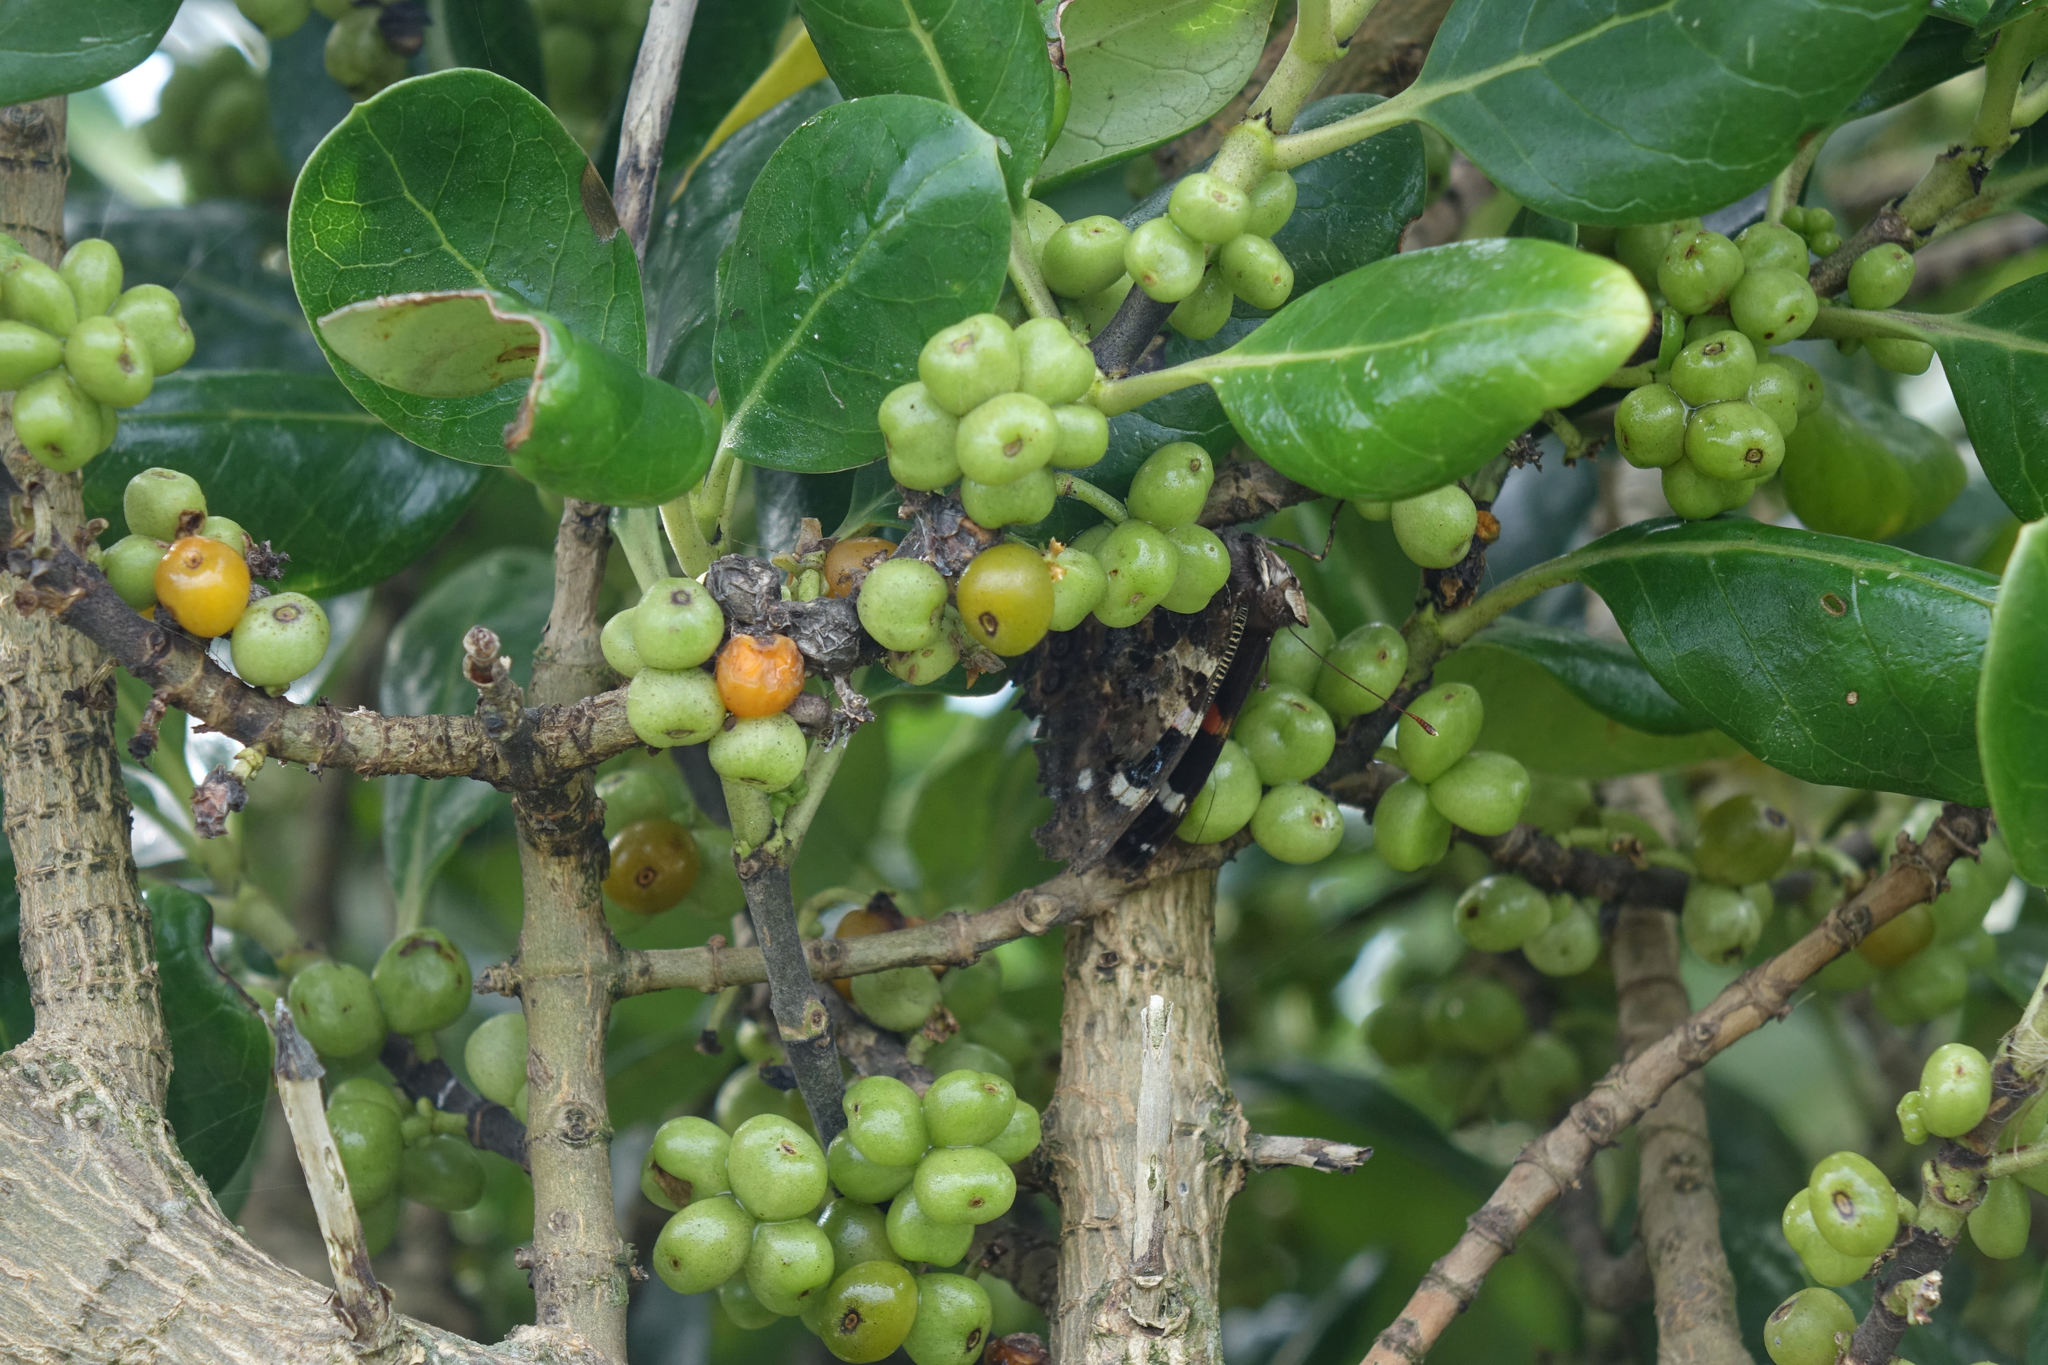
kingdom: Plantae
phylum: Tracheophyta
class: Magnoliopsida
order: Gentianales
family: Rubiaceae
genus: Coprosma
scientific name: Coprosma repens
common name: Tree bedstraw
